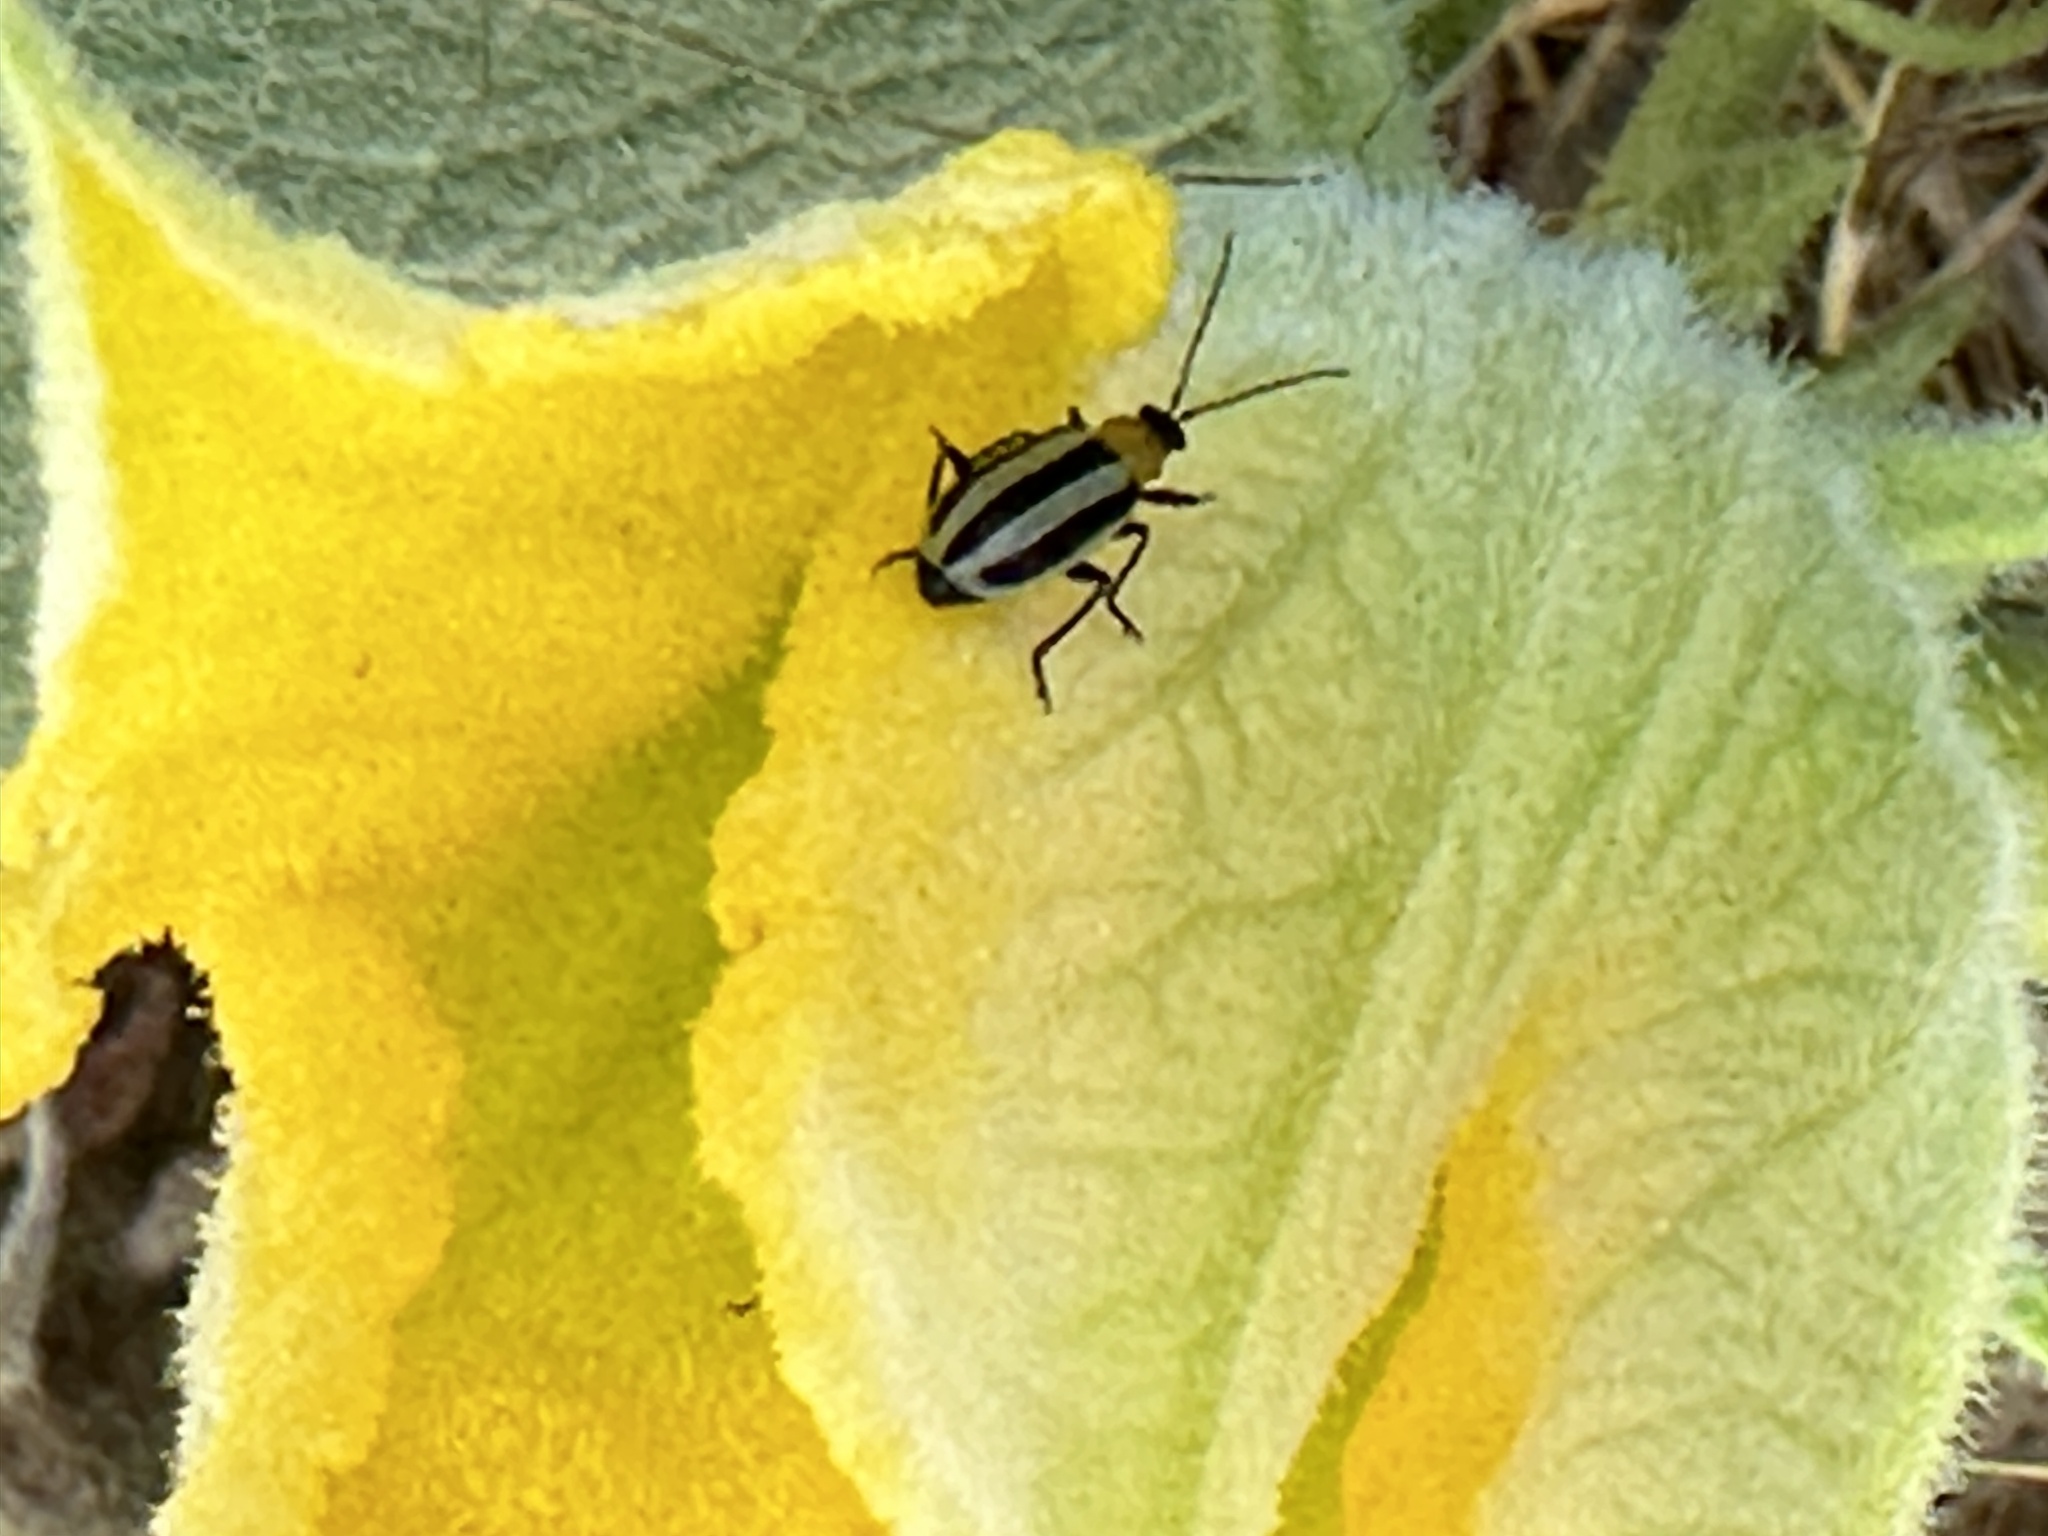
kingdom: Animalia
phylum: Arthropoda
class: Insecta
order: Coleoptera
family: Chrysomelidae
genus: Acalymma
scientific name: Acalymma trivittatum
